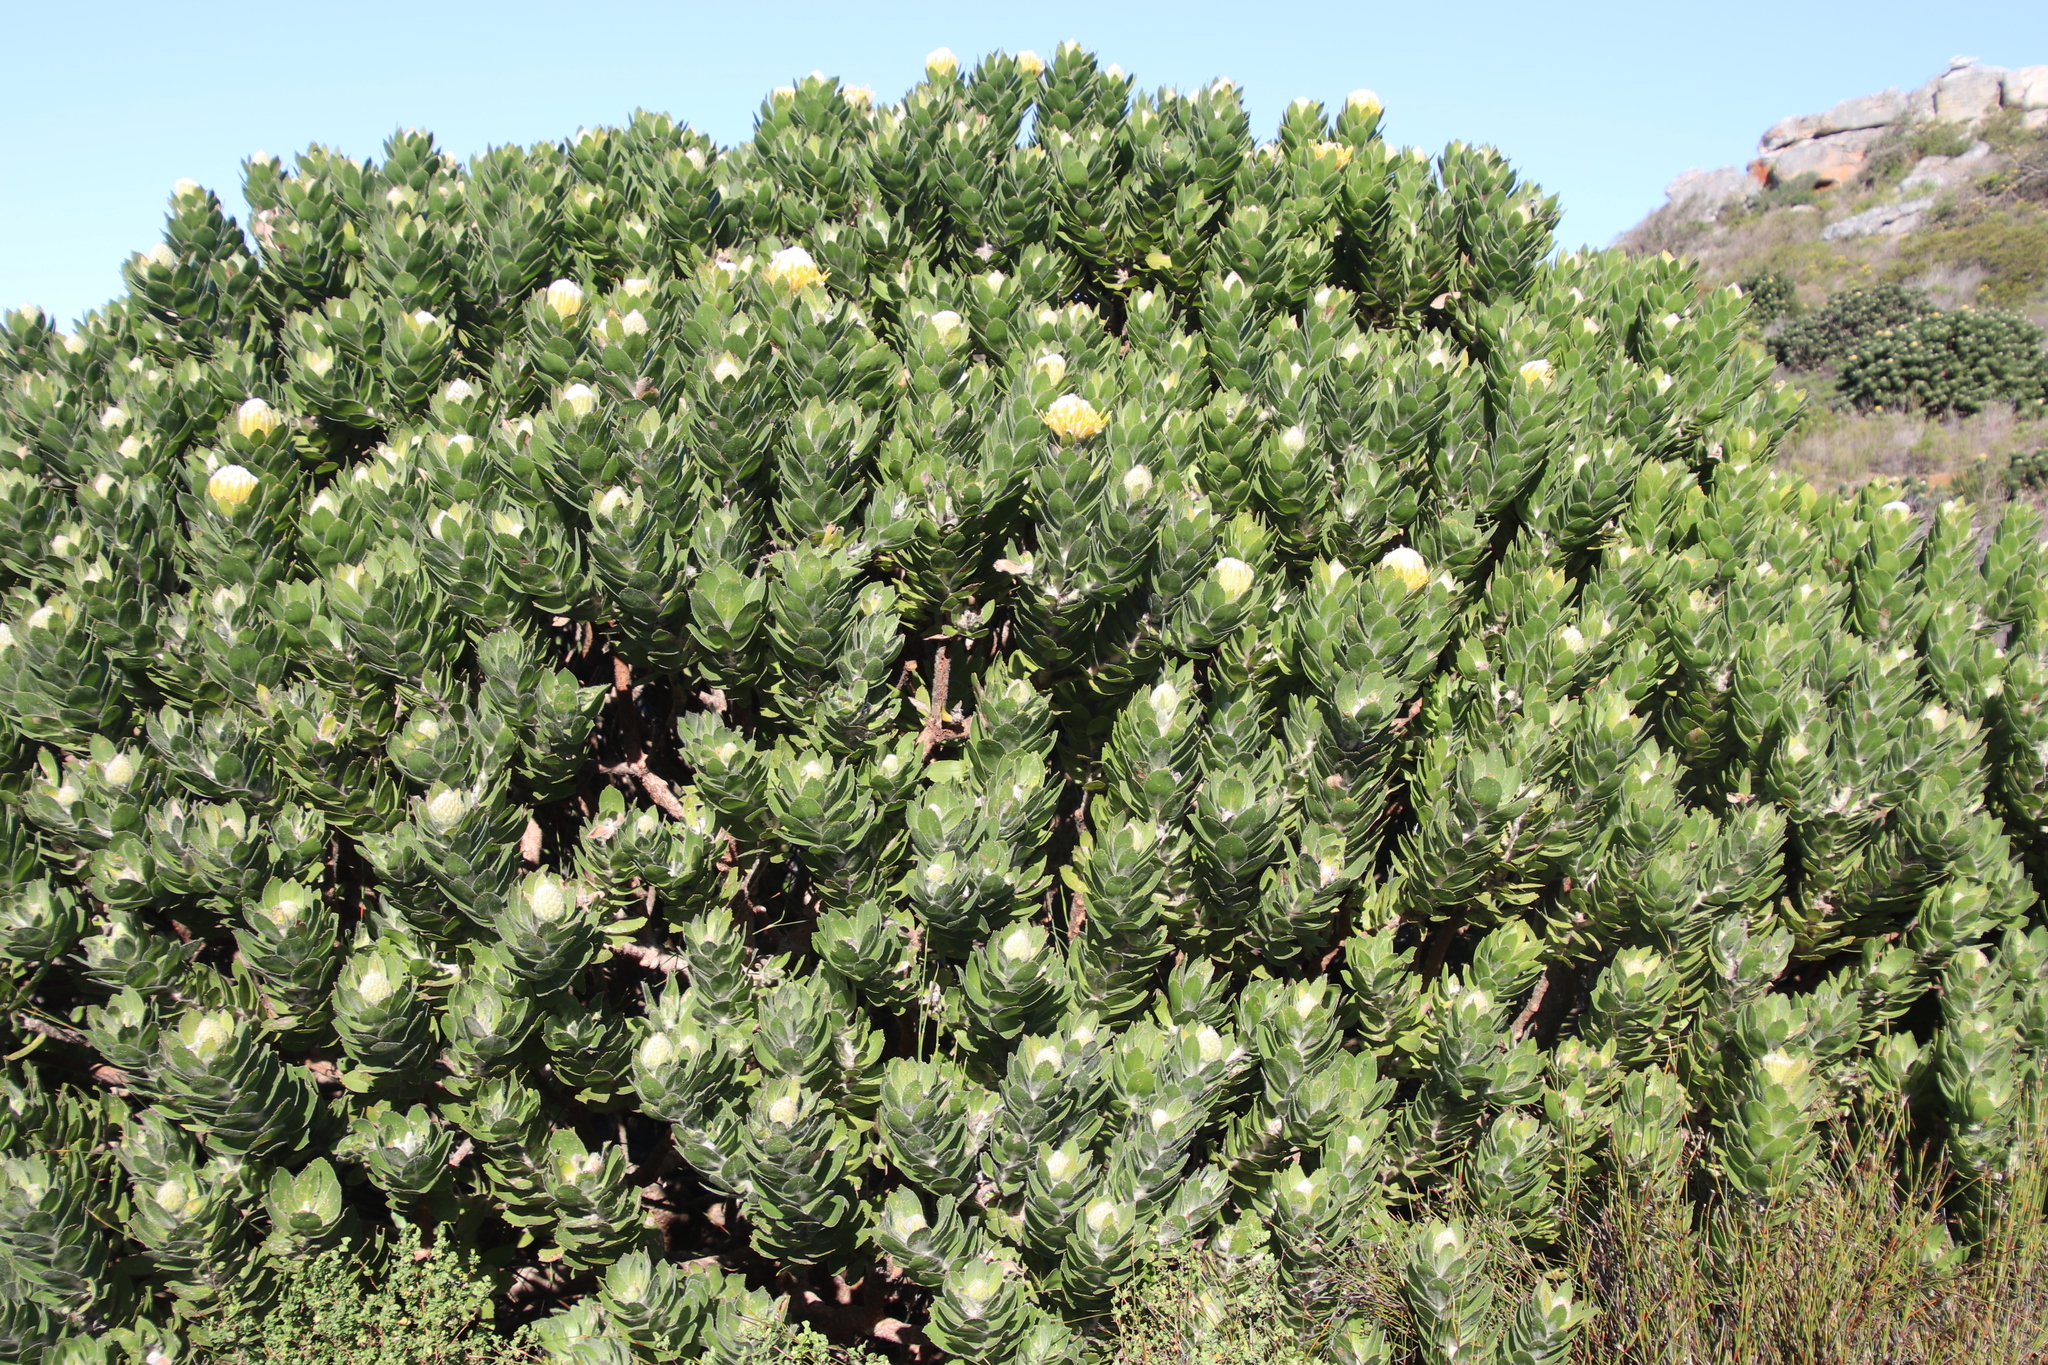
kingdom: Plantae
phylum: Tracheophyta
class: Magnoliopsida
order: Proteales
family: Proteaceae
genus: Leucospermum
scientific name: Leucospermum conocarpodendron
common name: Tree pincushion
